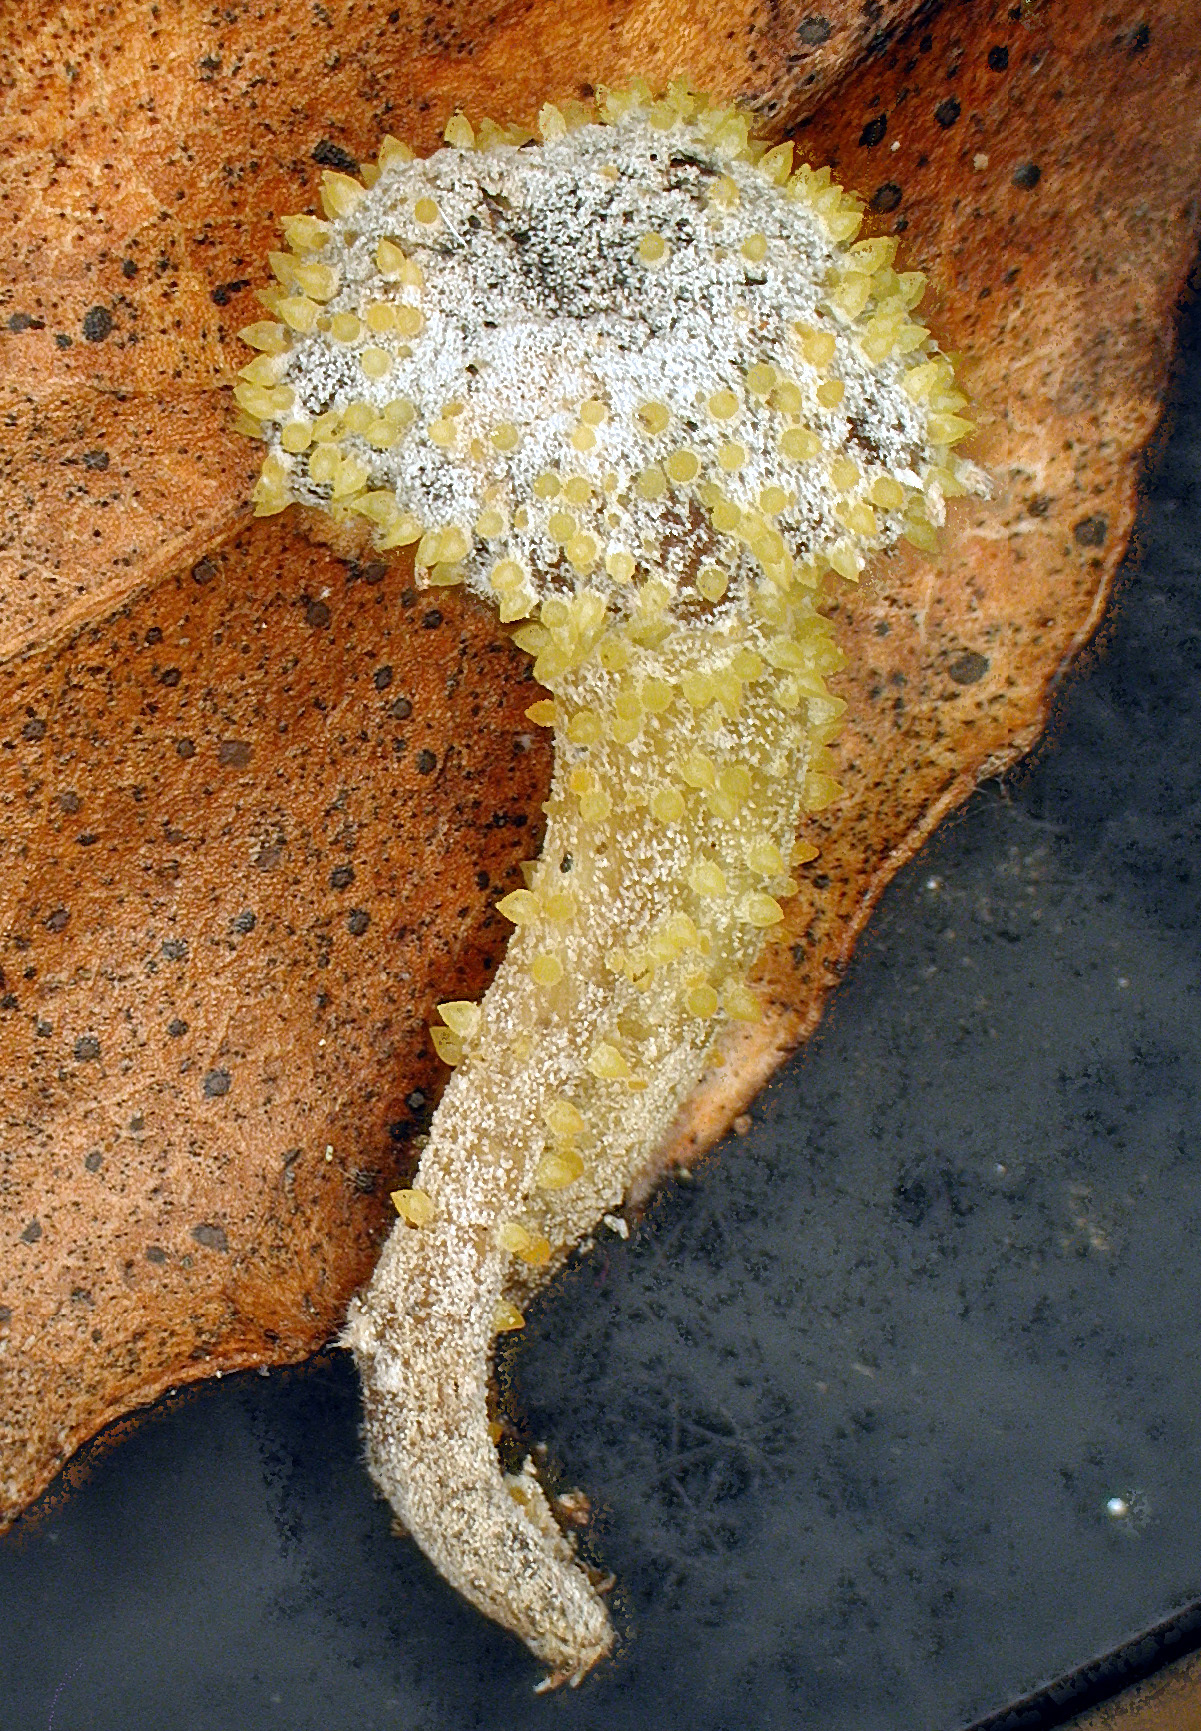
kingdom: Fungi
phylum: Ascomycota
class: Sordariomycetes
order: Hypocreales
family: Clavicipitaceae
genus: Neobarya
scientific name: Neobarya agaricicola
